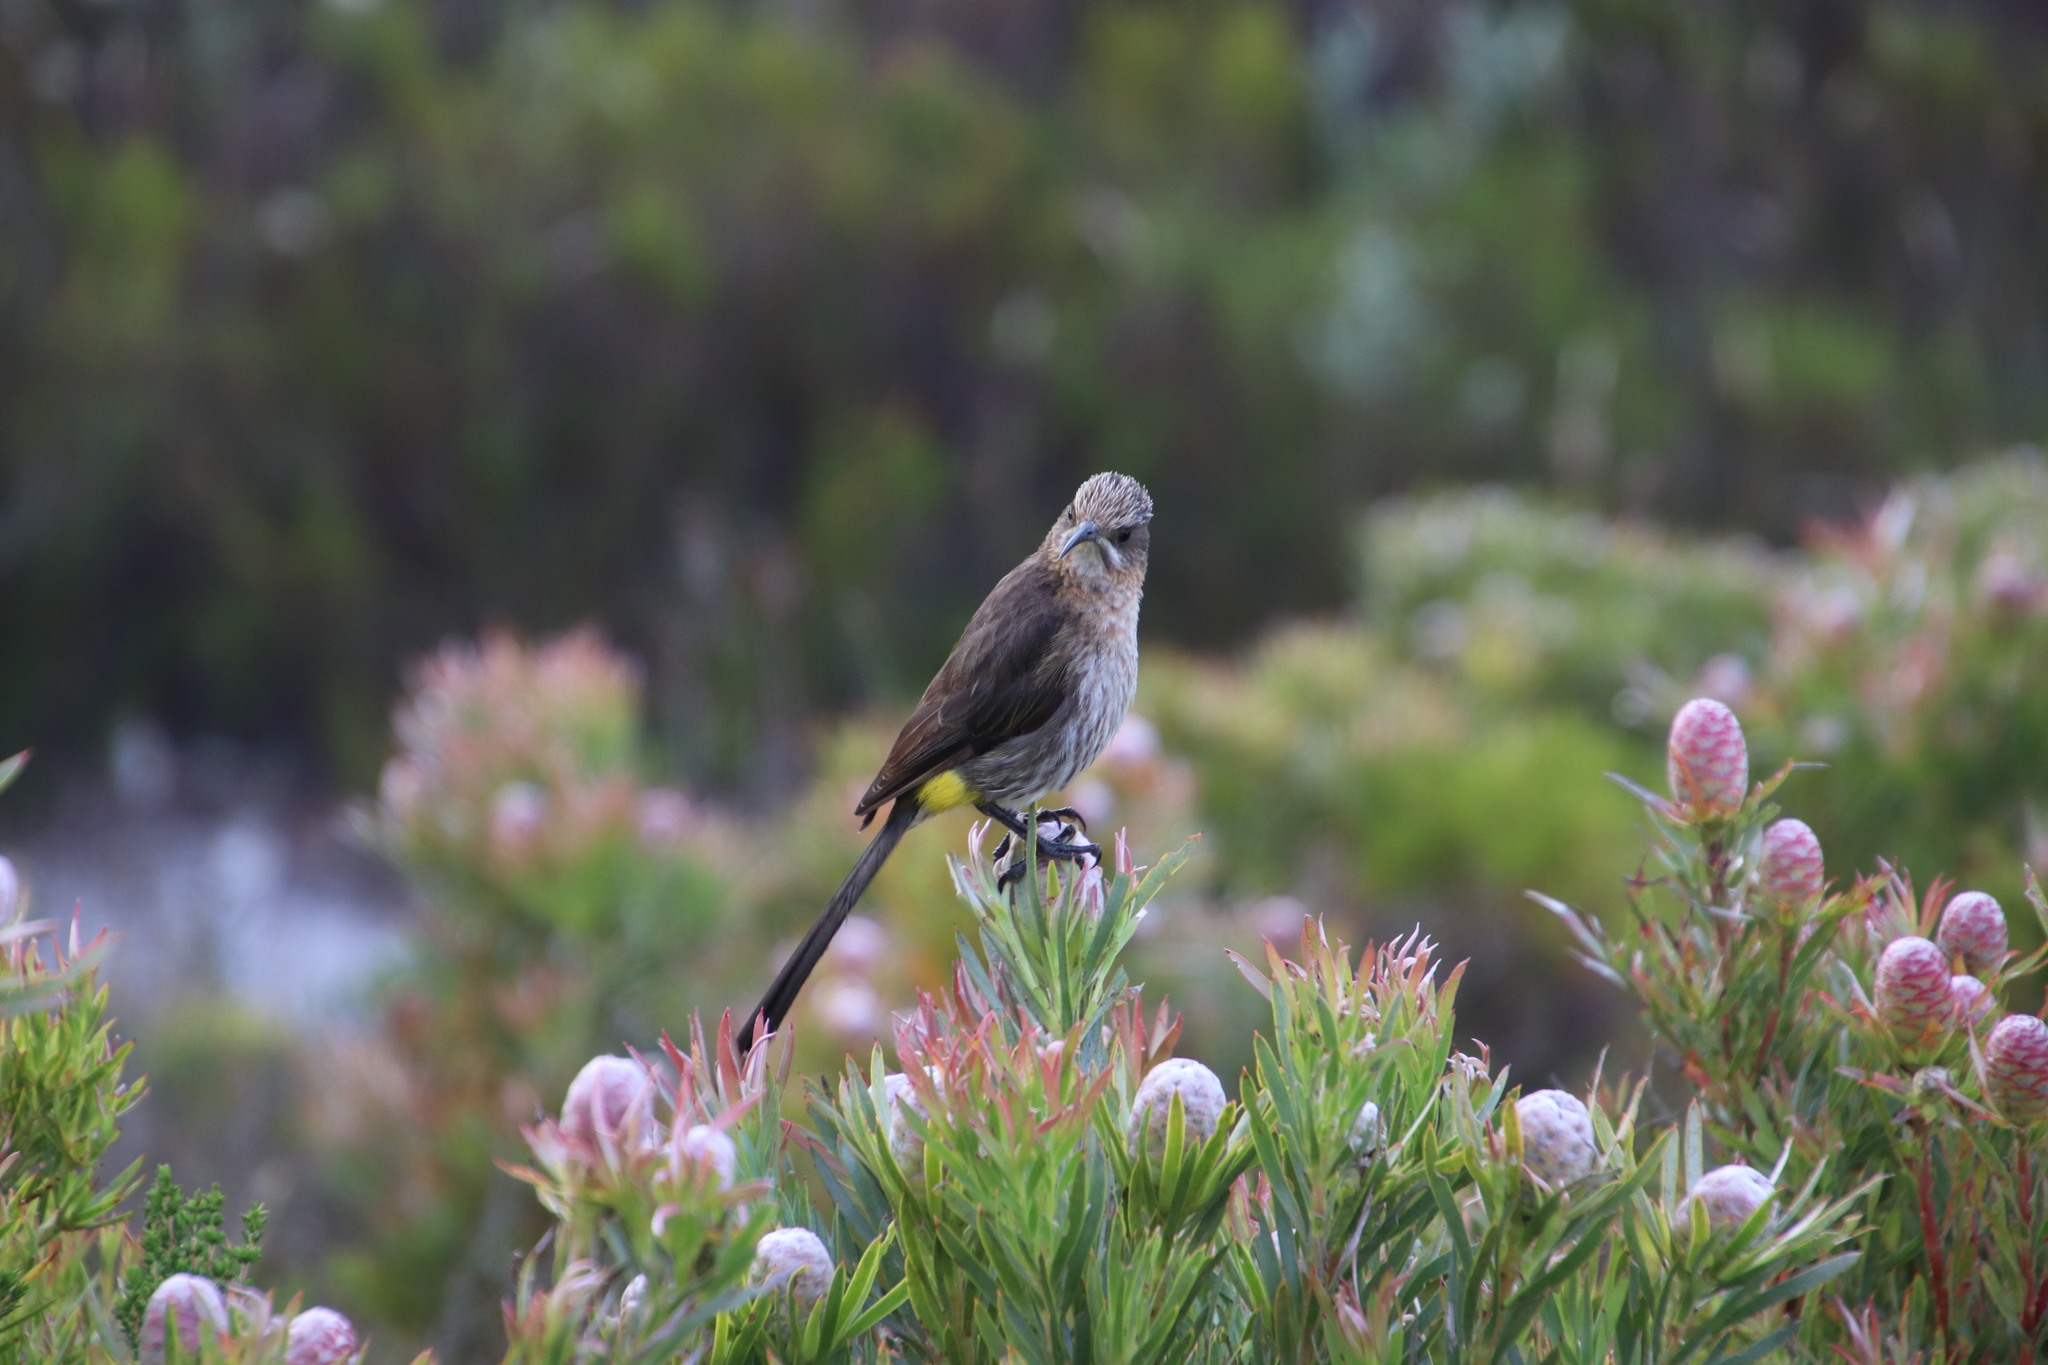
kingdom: Animalia
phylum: Chordata
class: Aves
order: Passeriformes
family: Promeropidae
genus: Promerops
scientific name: Promerops cafer
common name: Cape sugarbird
